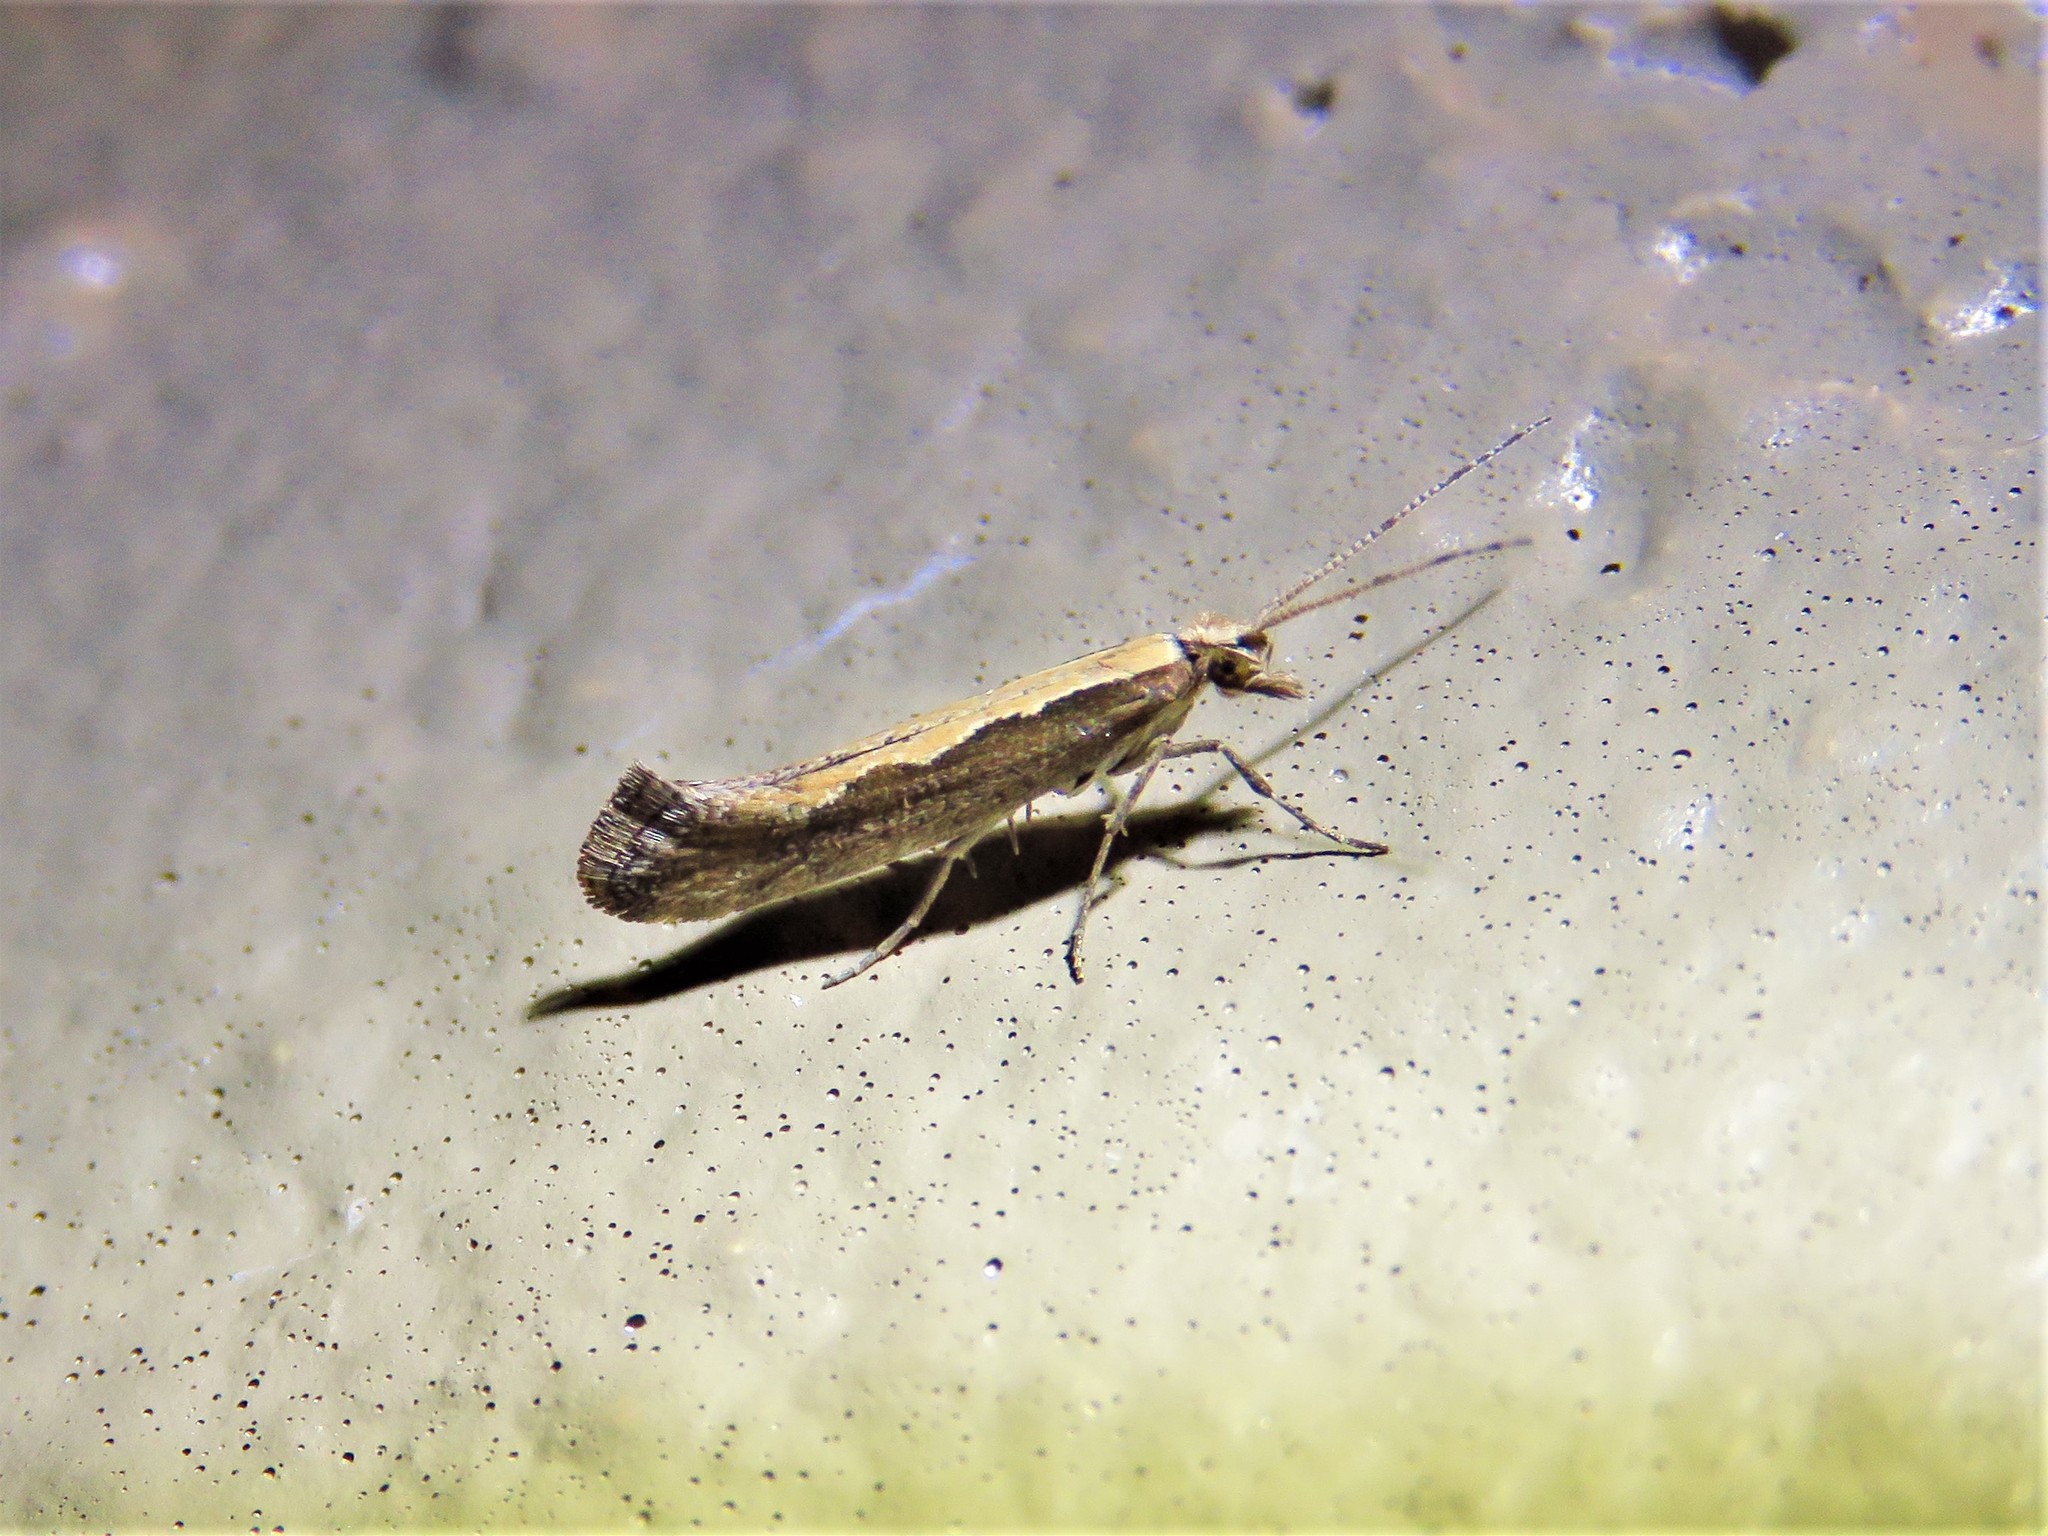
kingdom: Animalia
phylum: Arthropoda
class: Insecta
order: Lepidoptera
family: Plutellidae
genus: Plutella
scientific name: Plutella xylostella
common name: Diamond-back moth
